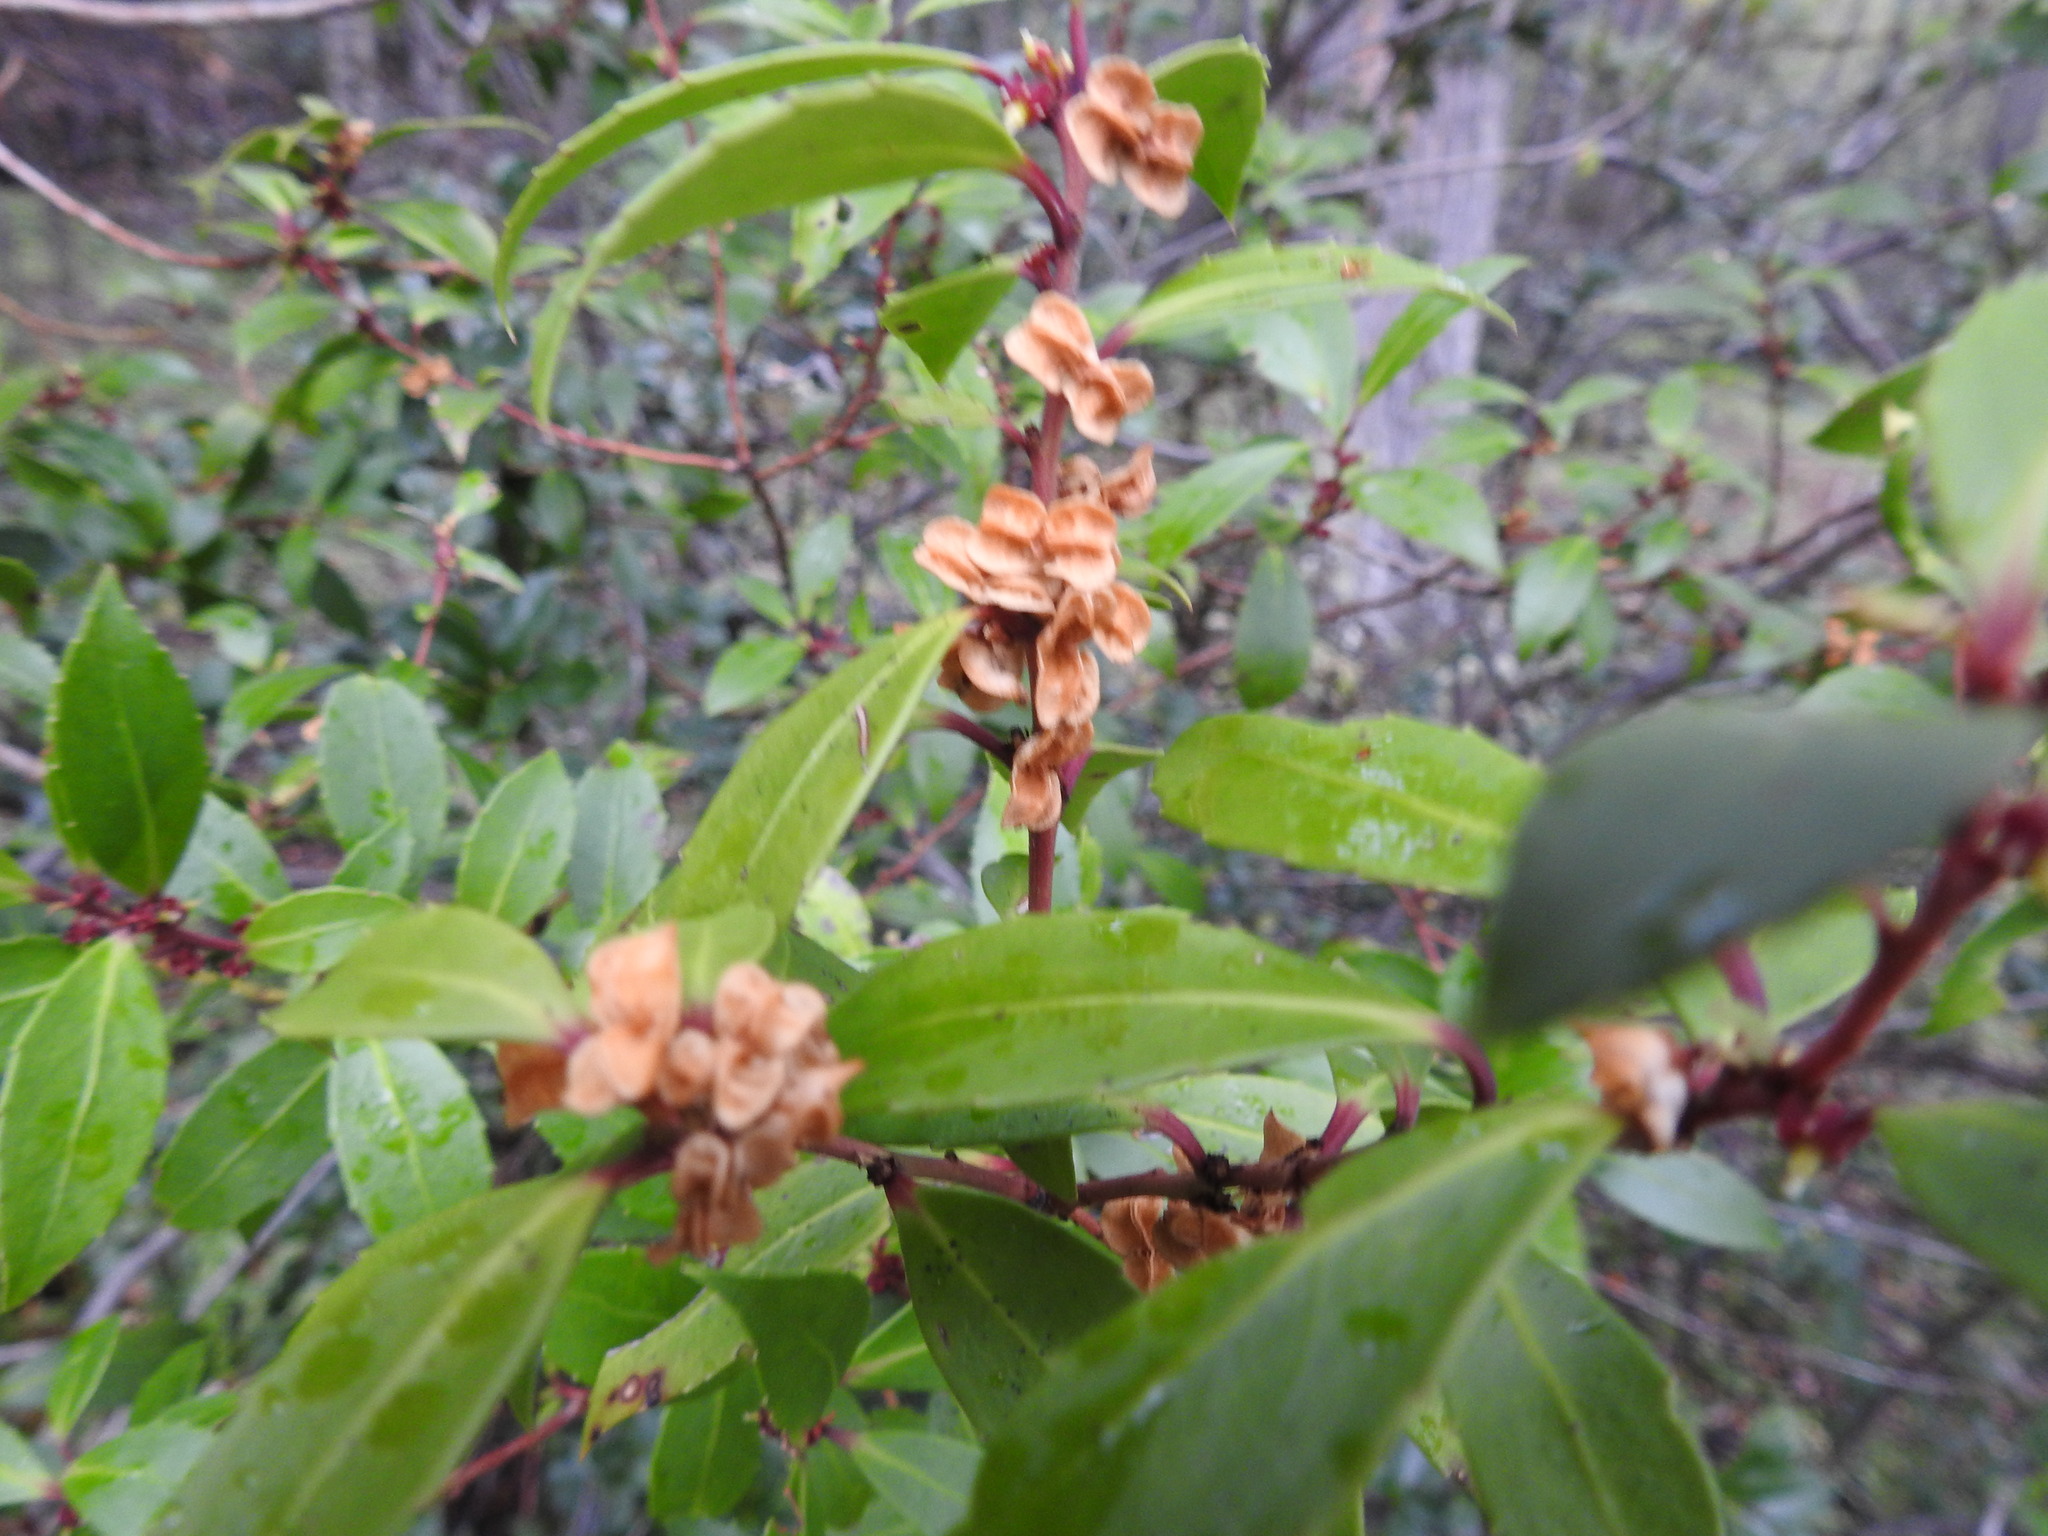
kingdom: Plantae
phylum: Tracheophyta
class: Magnoliopsida
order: Celastrales
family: Celastraceae
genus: Maytenus
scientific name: Maytenus magellanica
